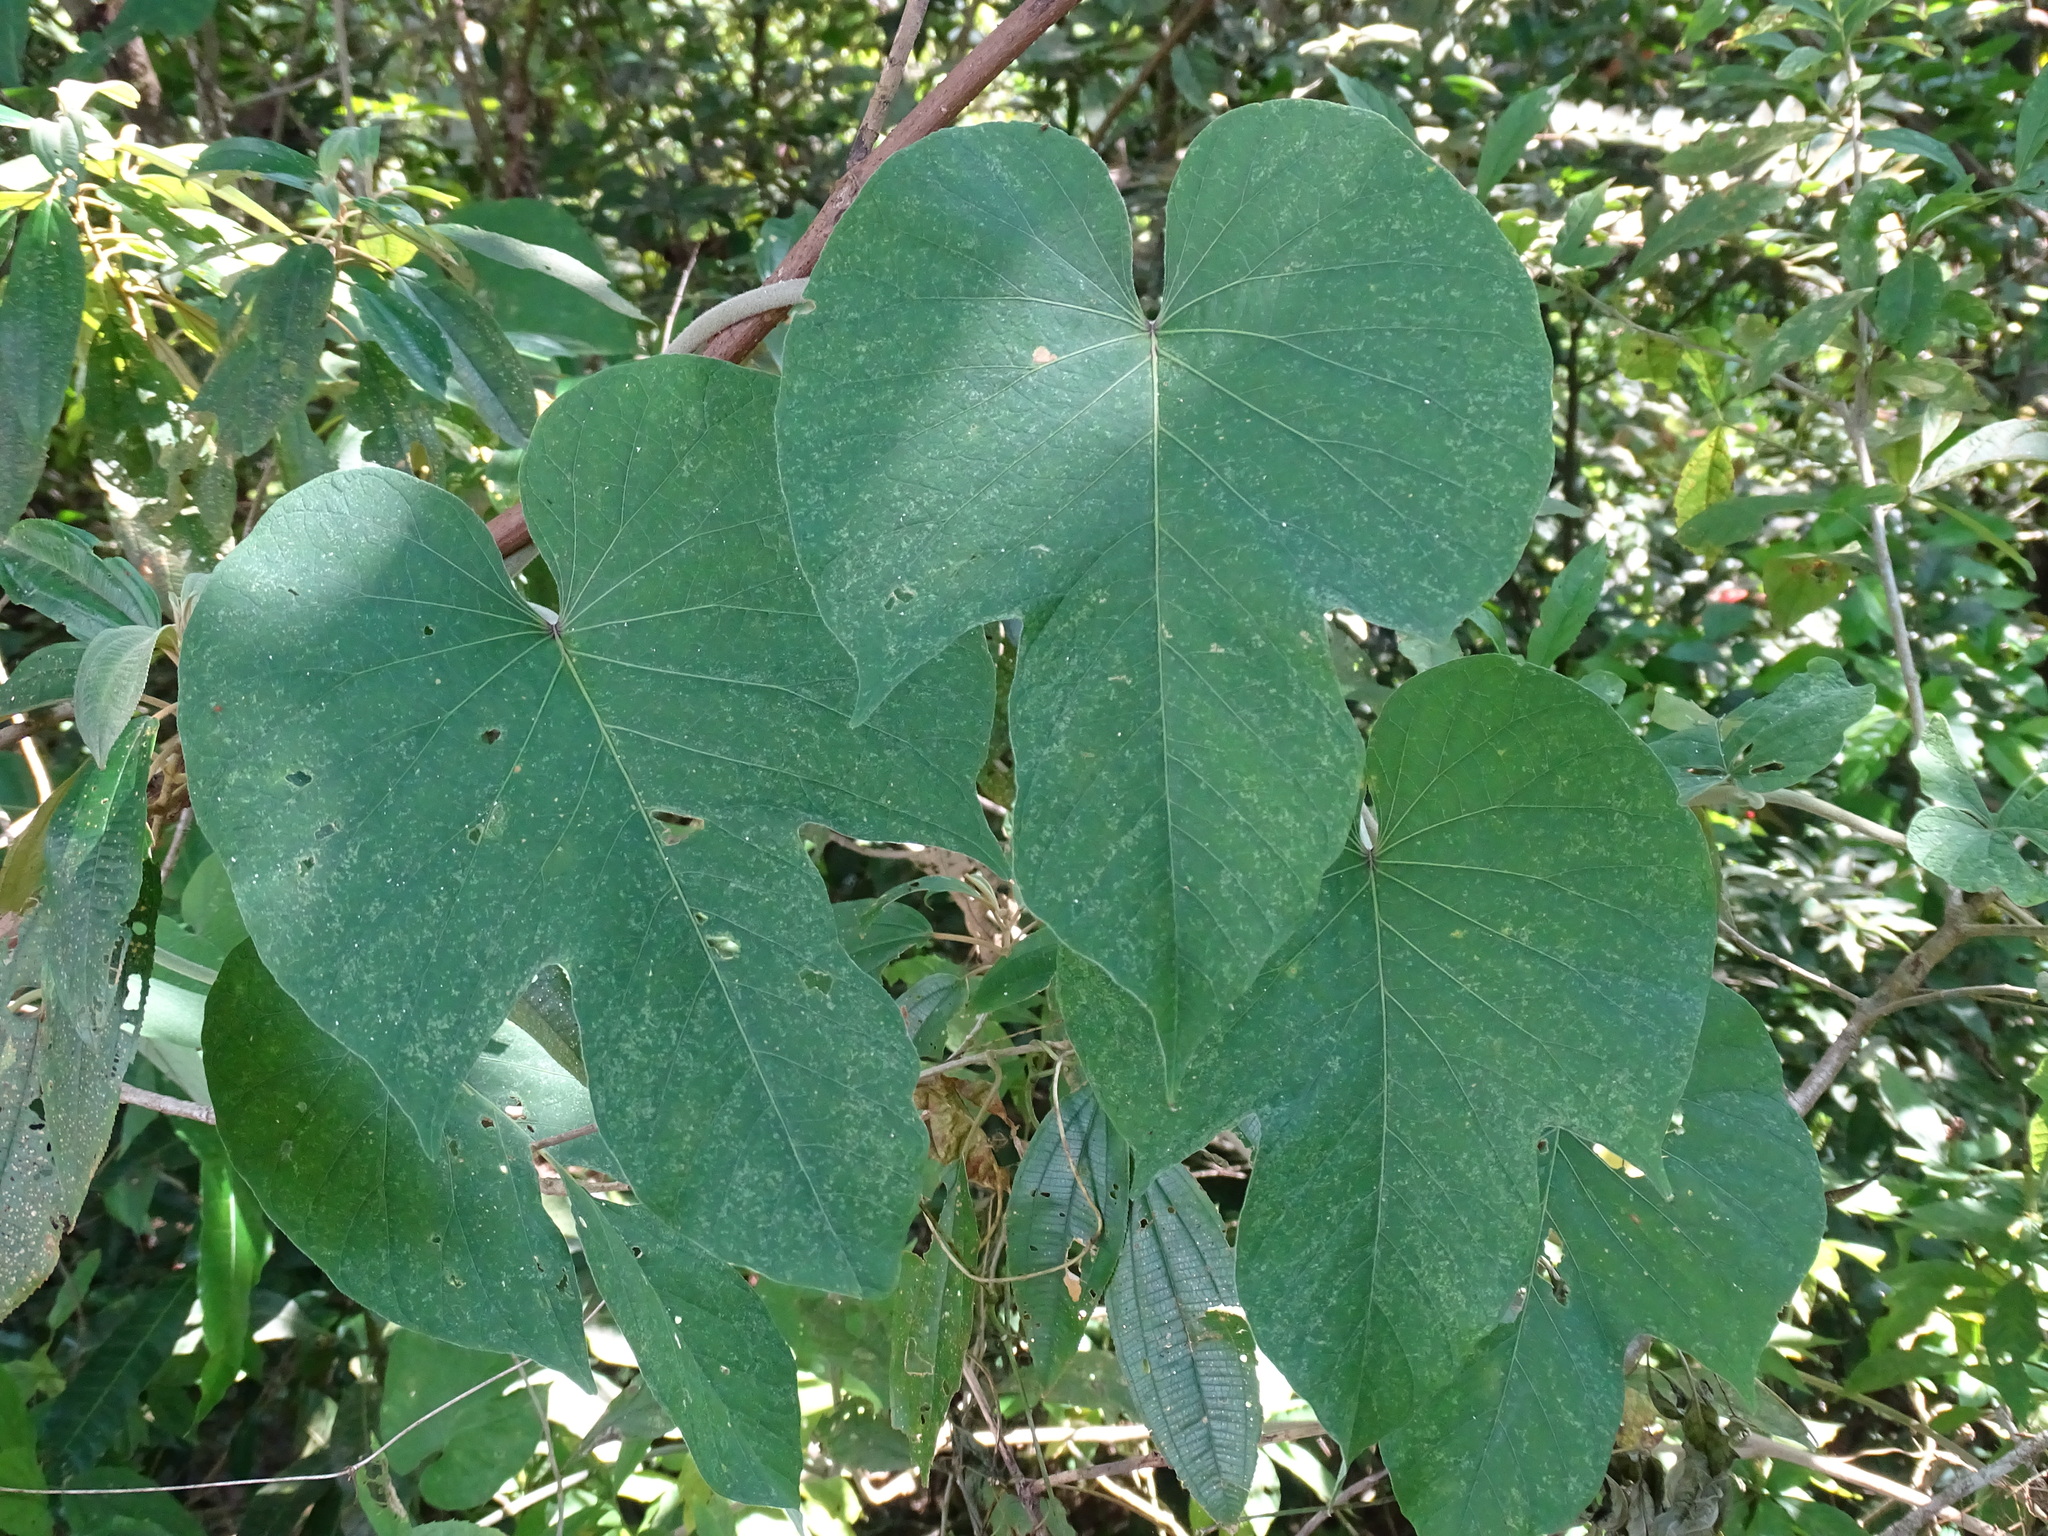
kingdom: Plantae
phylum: Tracheophyta
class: Magnoliopsida
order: Solanales
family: Convolvulaceae
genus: Ipomoea
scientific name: Ipomoea mairetii
